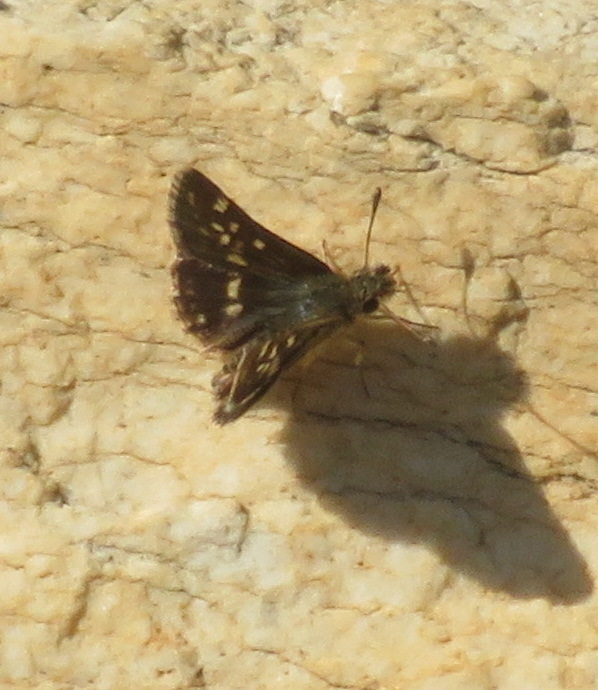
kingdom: Animalia
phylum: Arthropoda
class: Insecta
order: Lepidoptera
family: Hesperiidae
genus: Ernsta
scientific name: Ernsta
